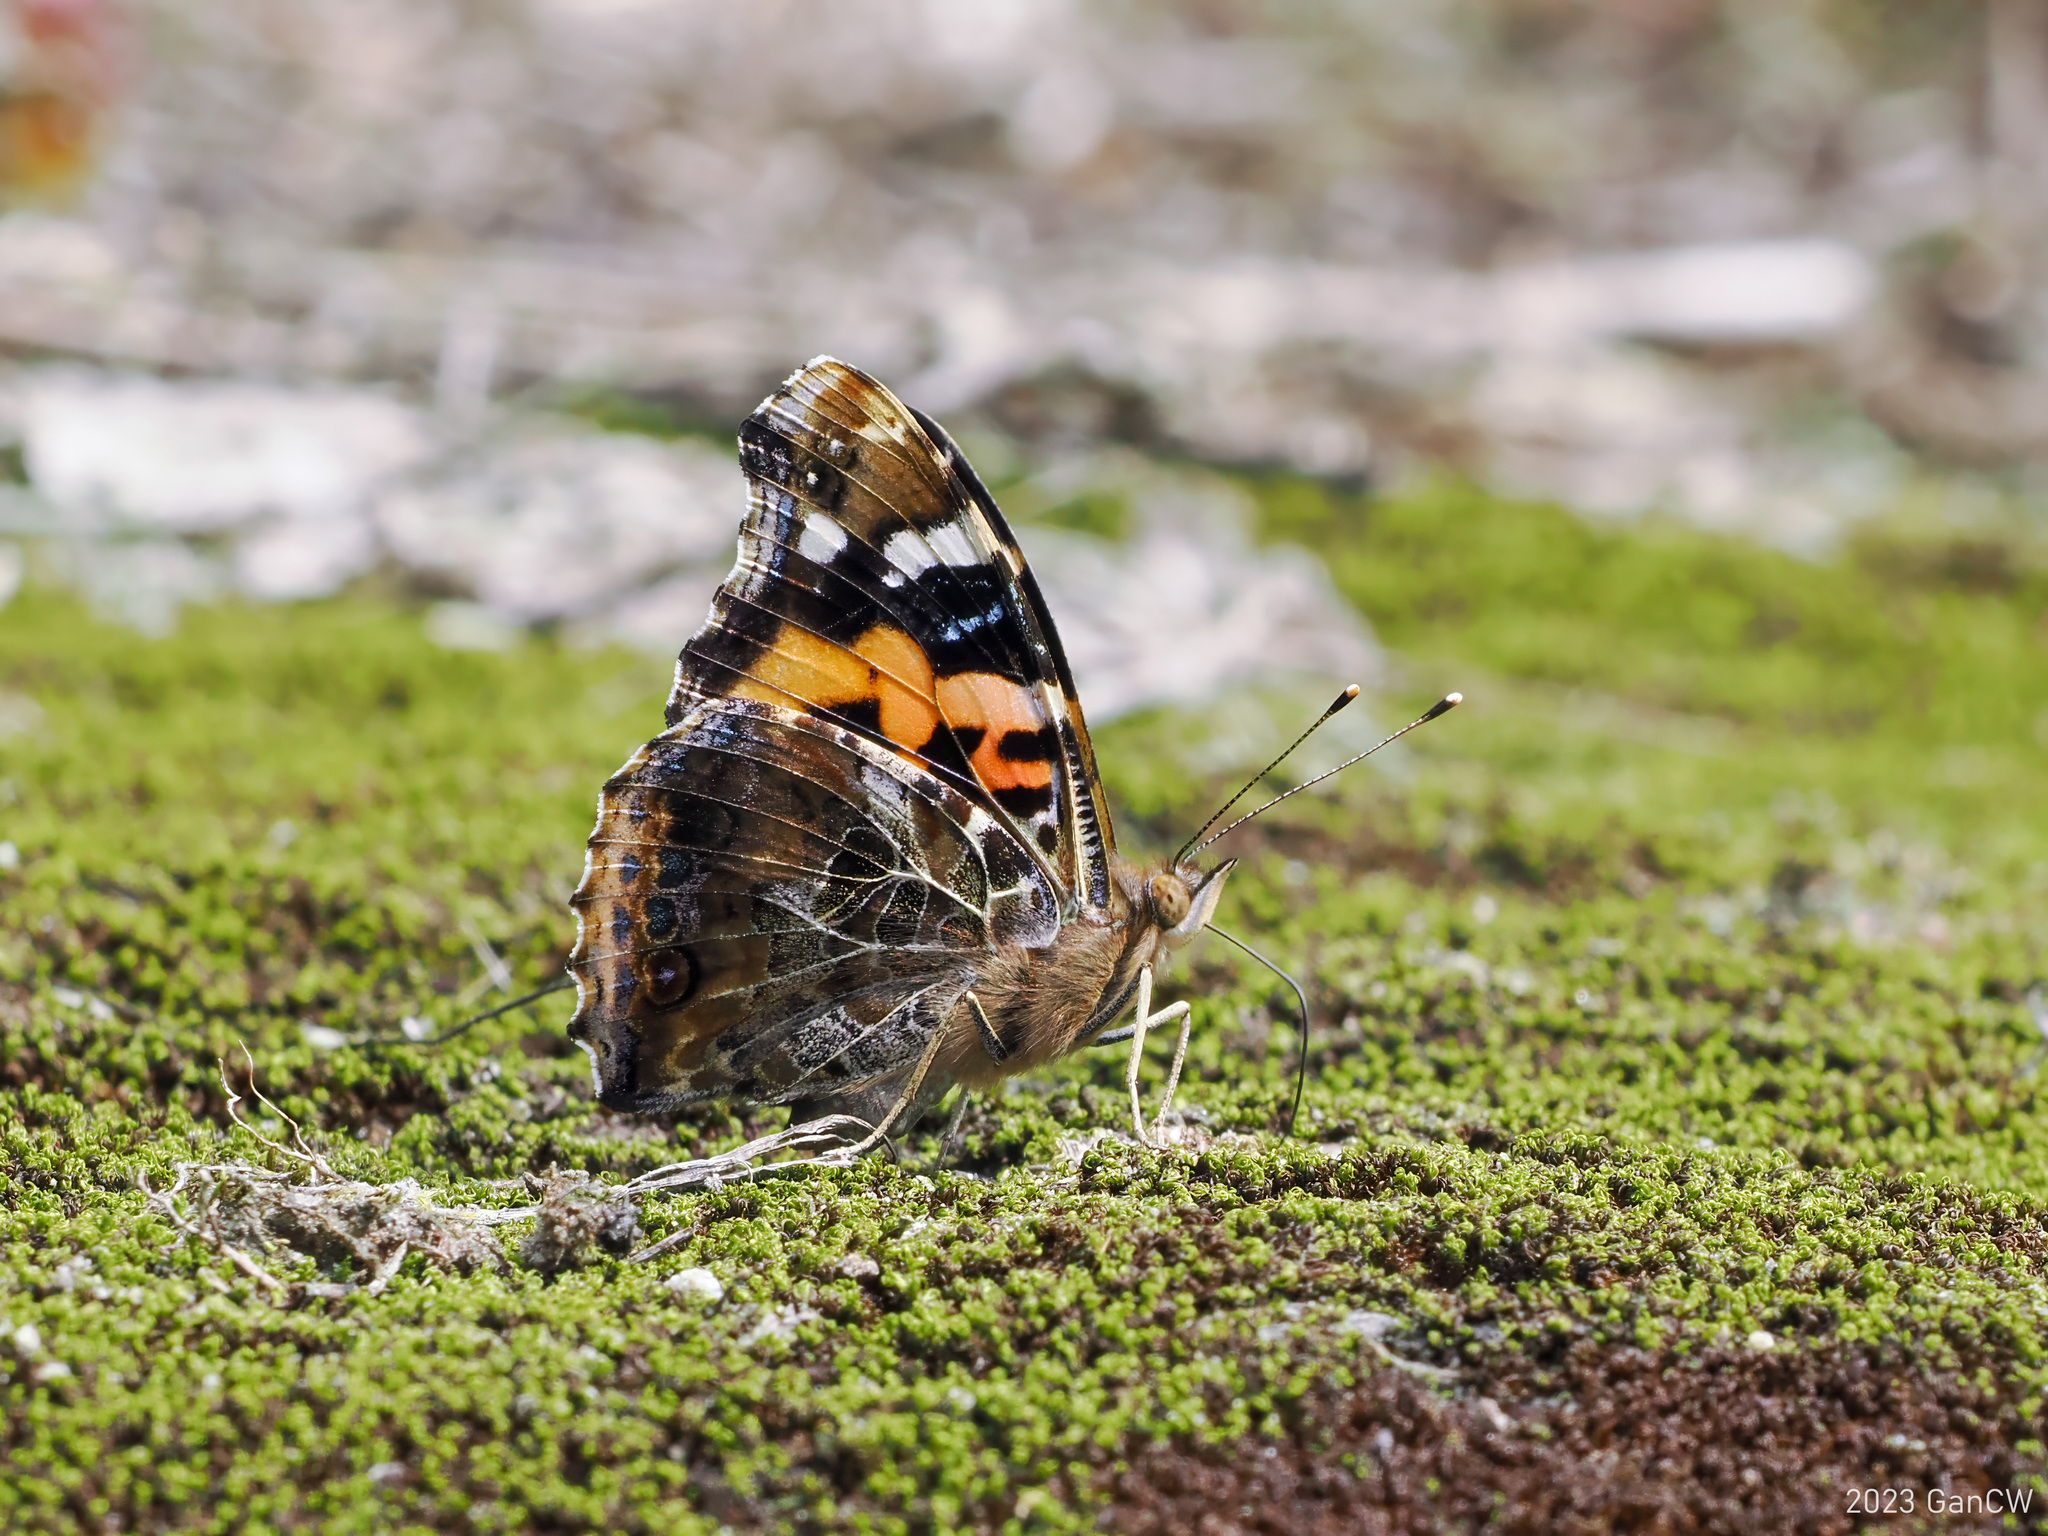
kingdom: Animalia
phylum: Arthropoda
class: Insecta
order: Lepidoptera
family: Nymphalidae
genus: Vanessa
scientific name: Vanessa indica
